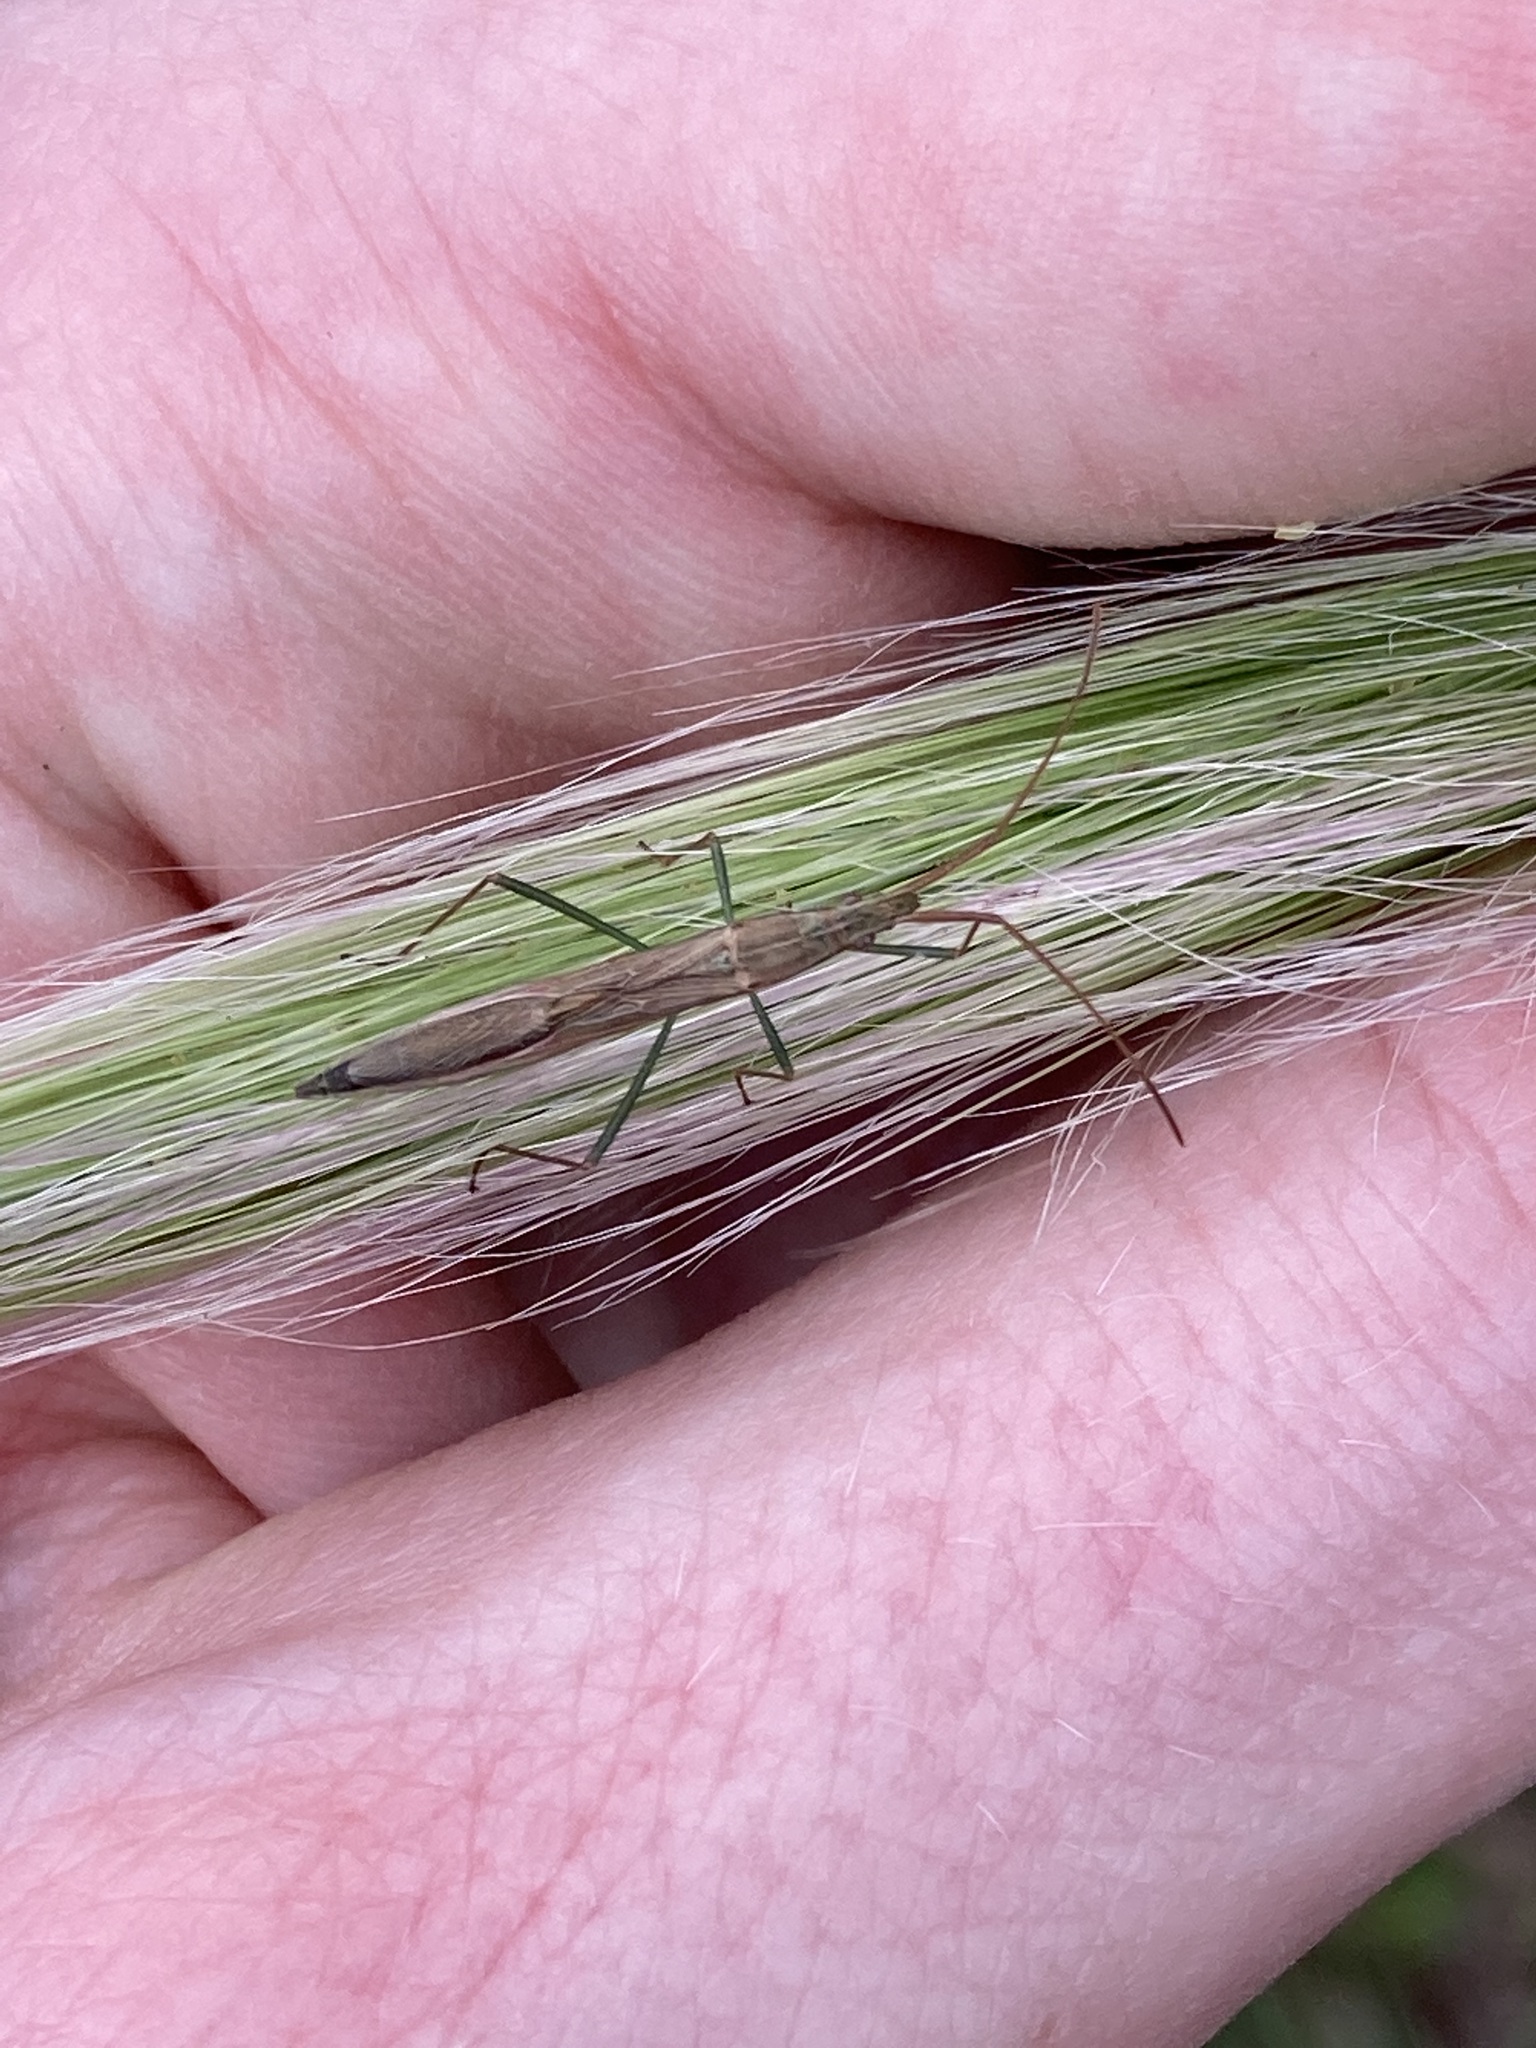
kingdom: Animalia
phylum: Arthropoda
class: Insecta
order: Hemiptera
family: Alydidae
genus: Mutusca
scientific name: Mutusca brevicornis
